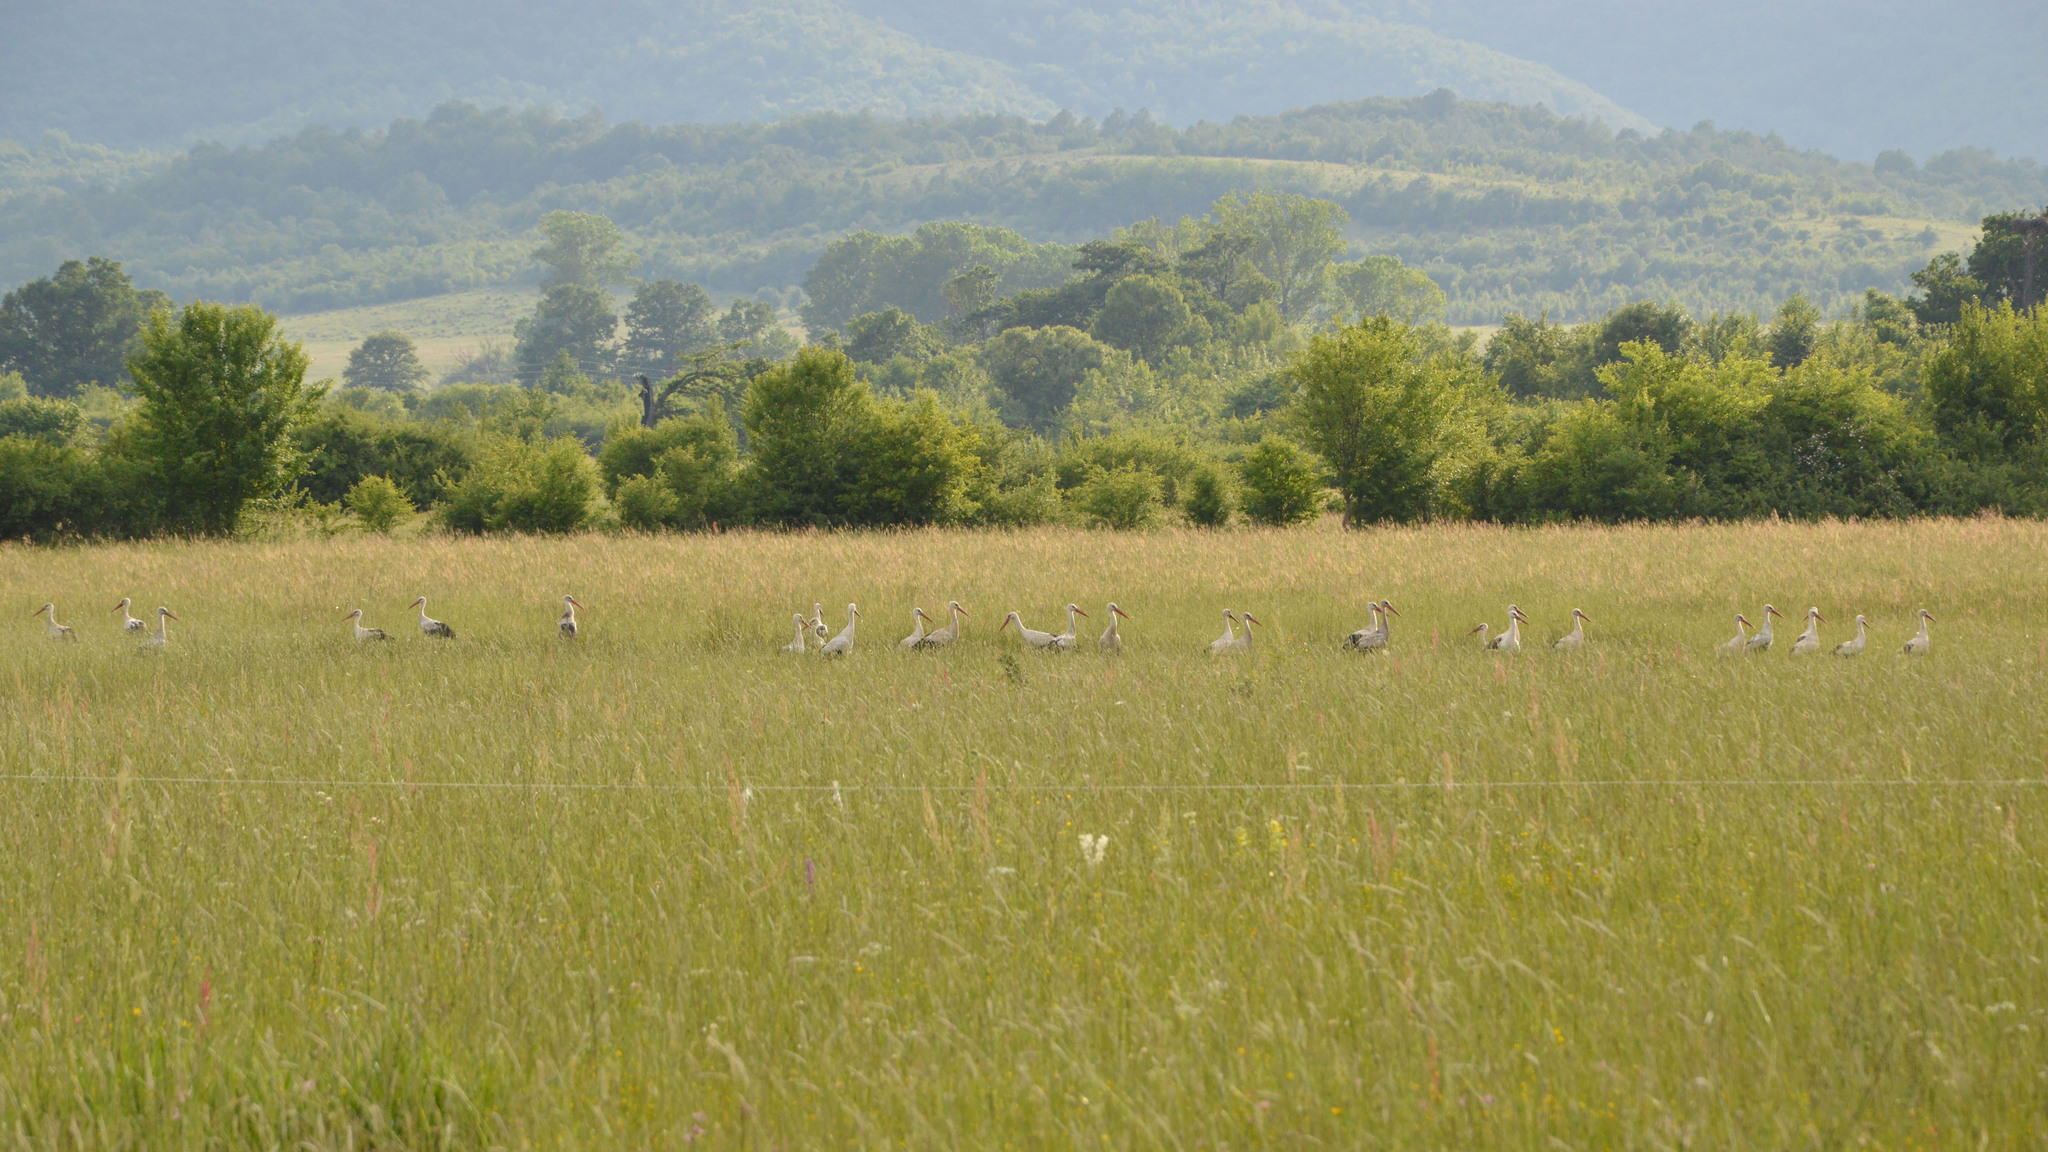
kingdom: Animalia
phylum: Chordata
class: Aves
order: Ciconiiformes
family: Ciconiidae
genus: Ciconia
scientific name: Ciconia ciconia
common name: White stork
